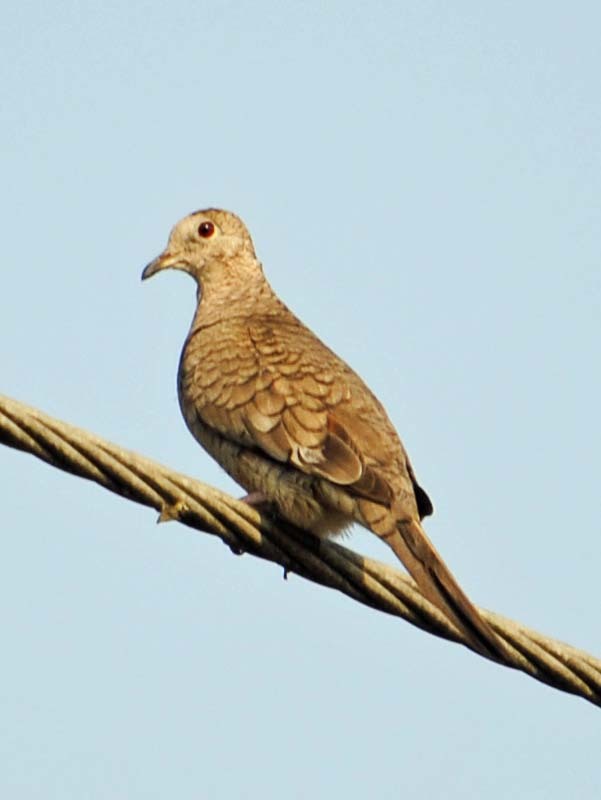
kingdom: Animalia
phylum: Chordata
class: Aves
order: Columbiformes
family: Columbidae
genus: Columbina
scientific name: Columbina inca
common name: Inca dove
